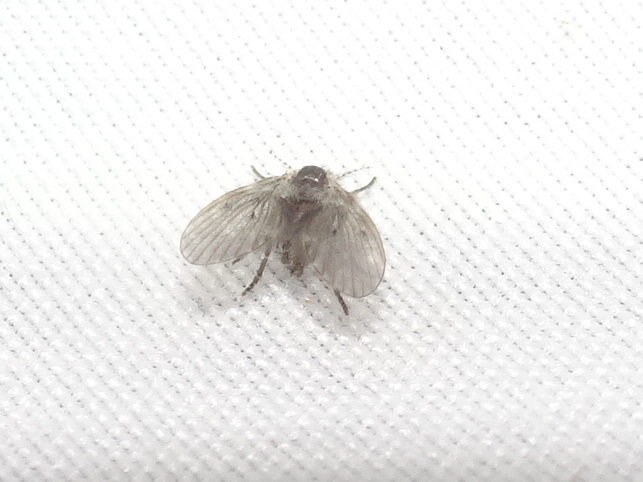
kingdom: Animalia
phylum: Arthropoda
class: Insecta
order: Diptera
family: Psychodidae
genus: Clogmia
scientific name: Clogmia albipunctatus
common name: White-spotted moth fly
